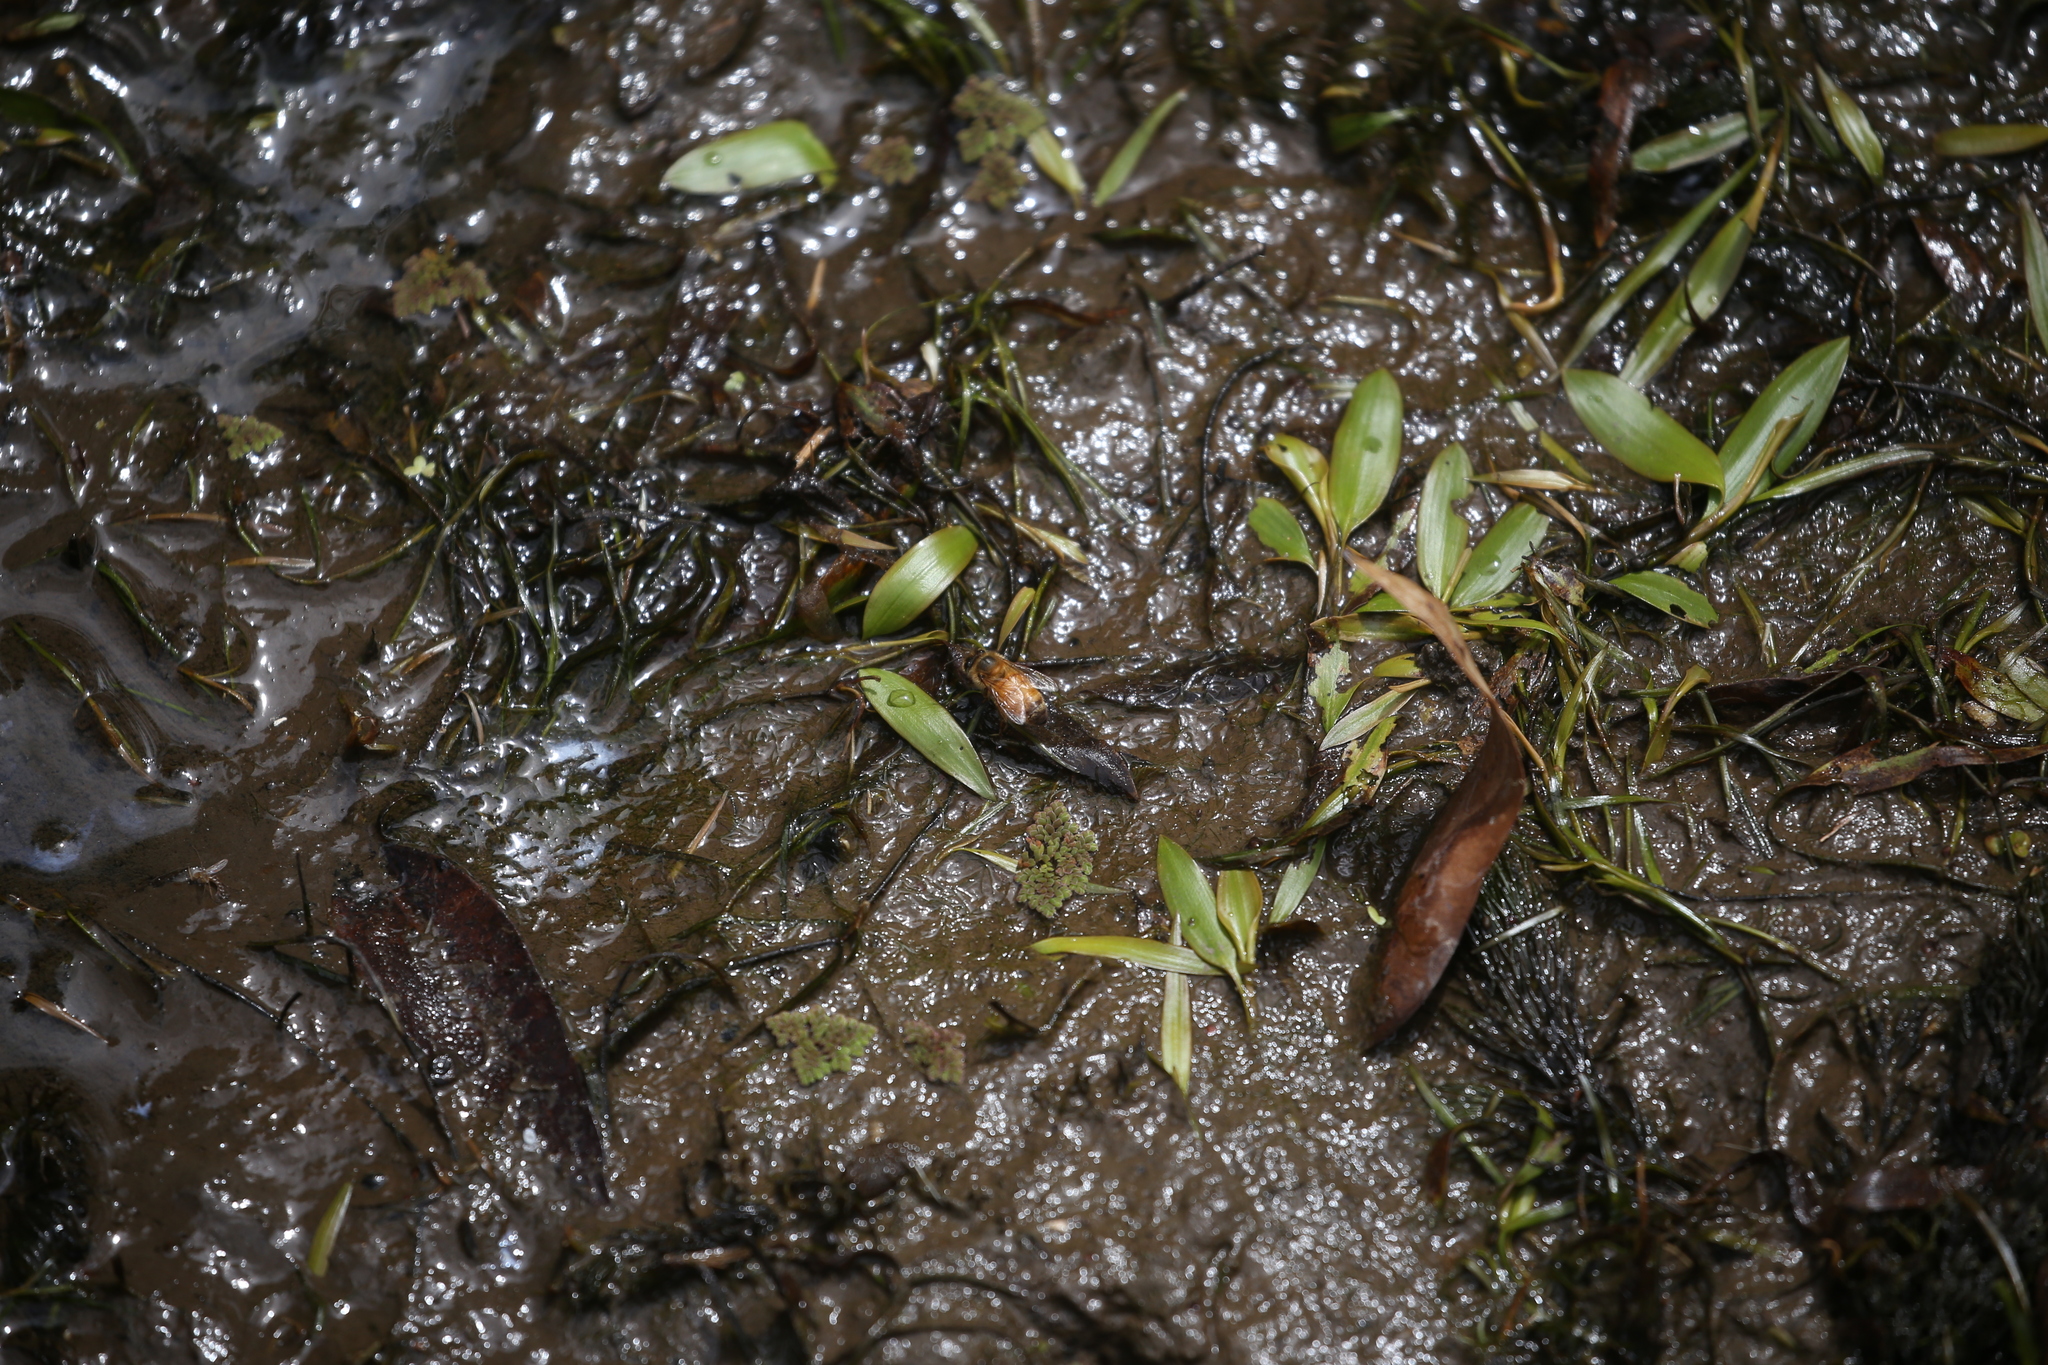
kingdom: Animalia
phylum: Arthropoda
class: Insecta
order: Hymenoptera
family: Apidae
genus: Apis
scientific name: Apis mellifera
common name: Honey bee
